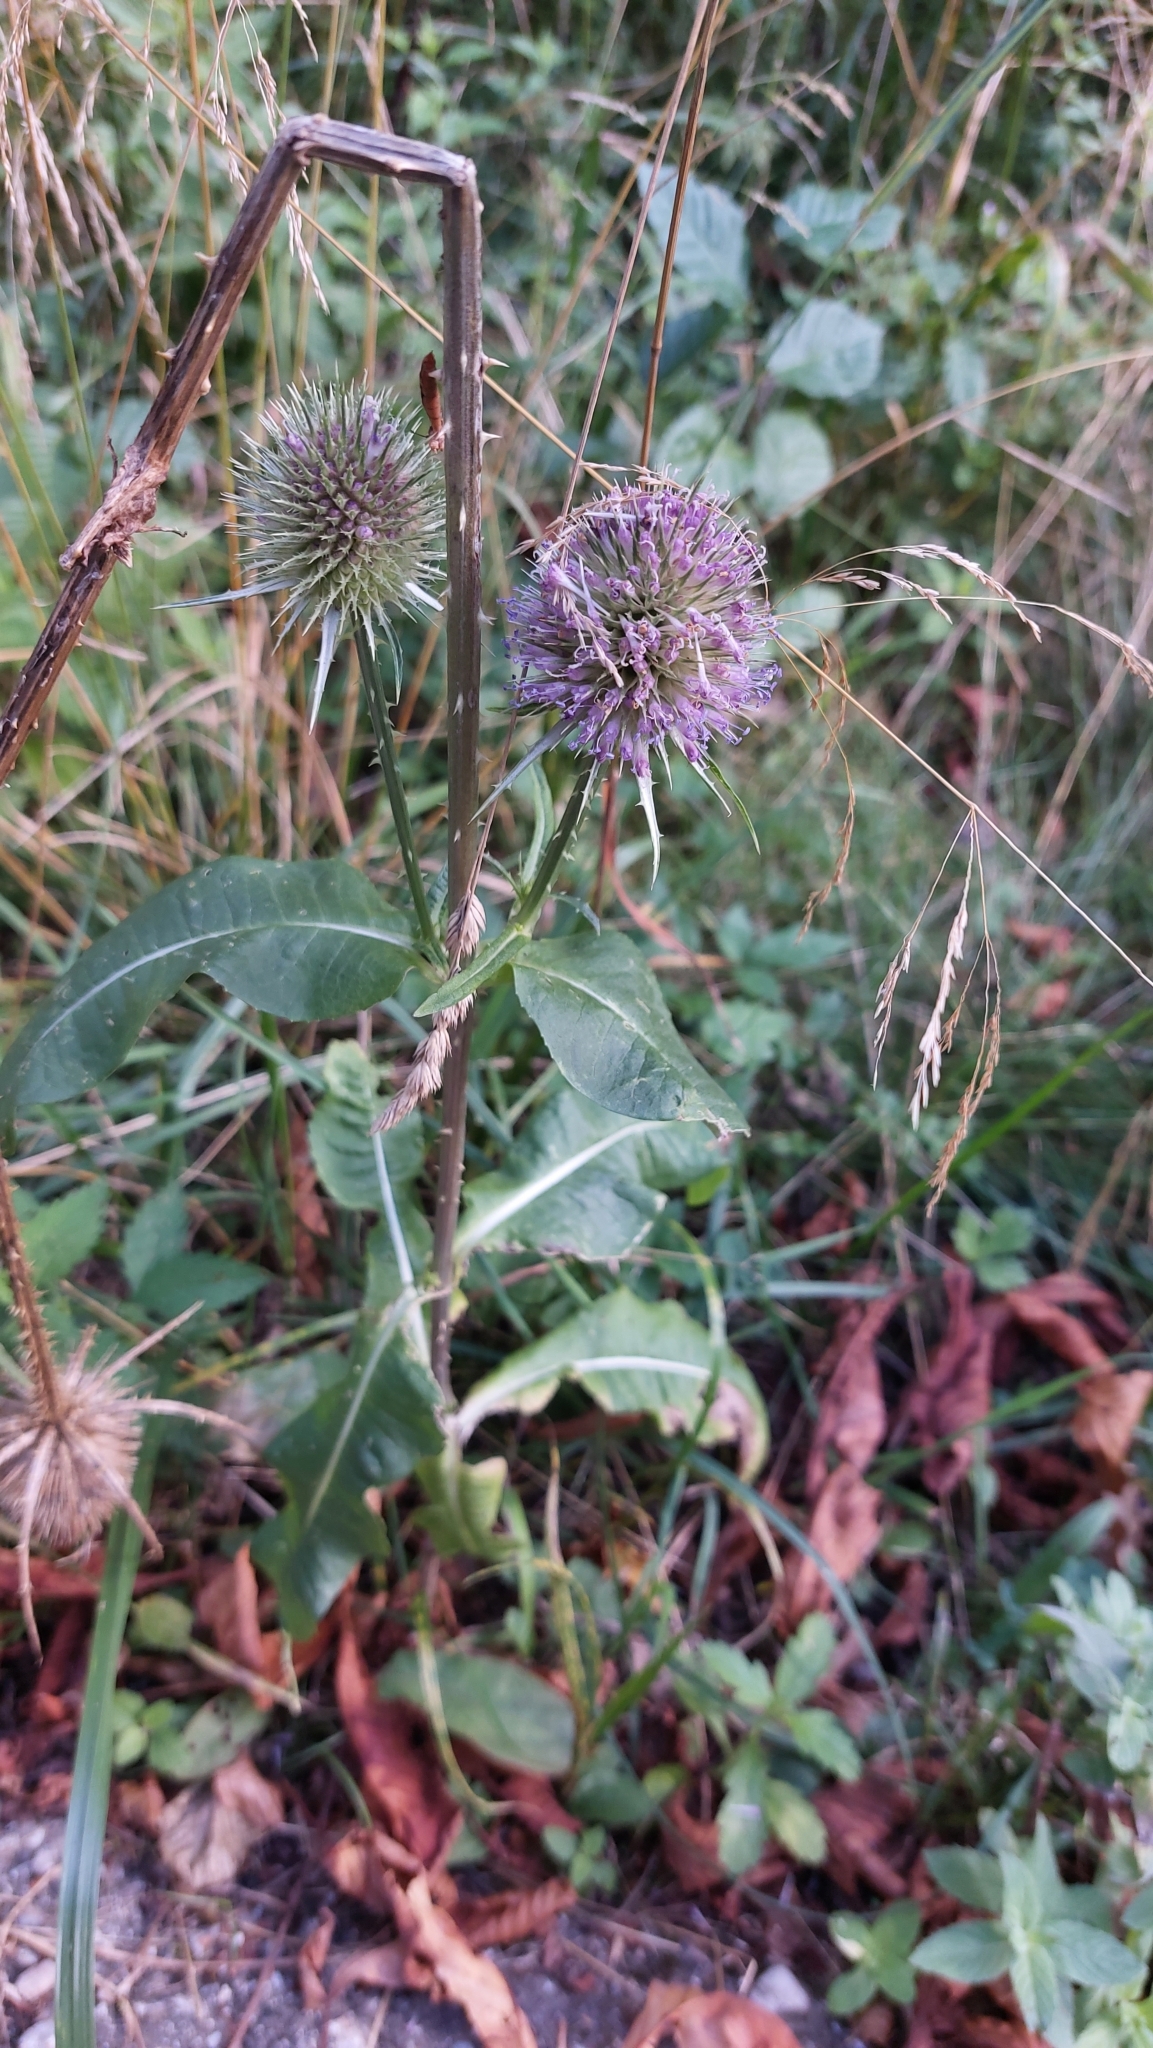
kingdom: Plantae
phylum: Tracheophyta
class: Magnoliopsida
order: Dipsacales
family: Caprifoliaceae
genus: Dipsacus
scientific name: Dipsacus fullonum
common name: Teasel
